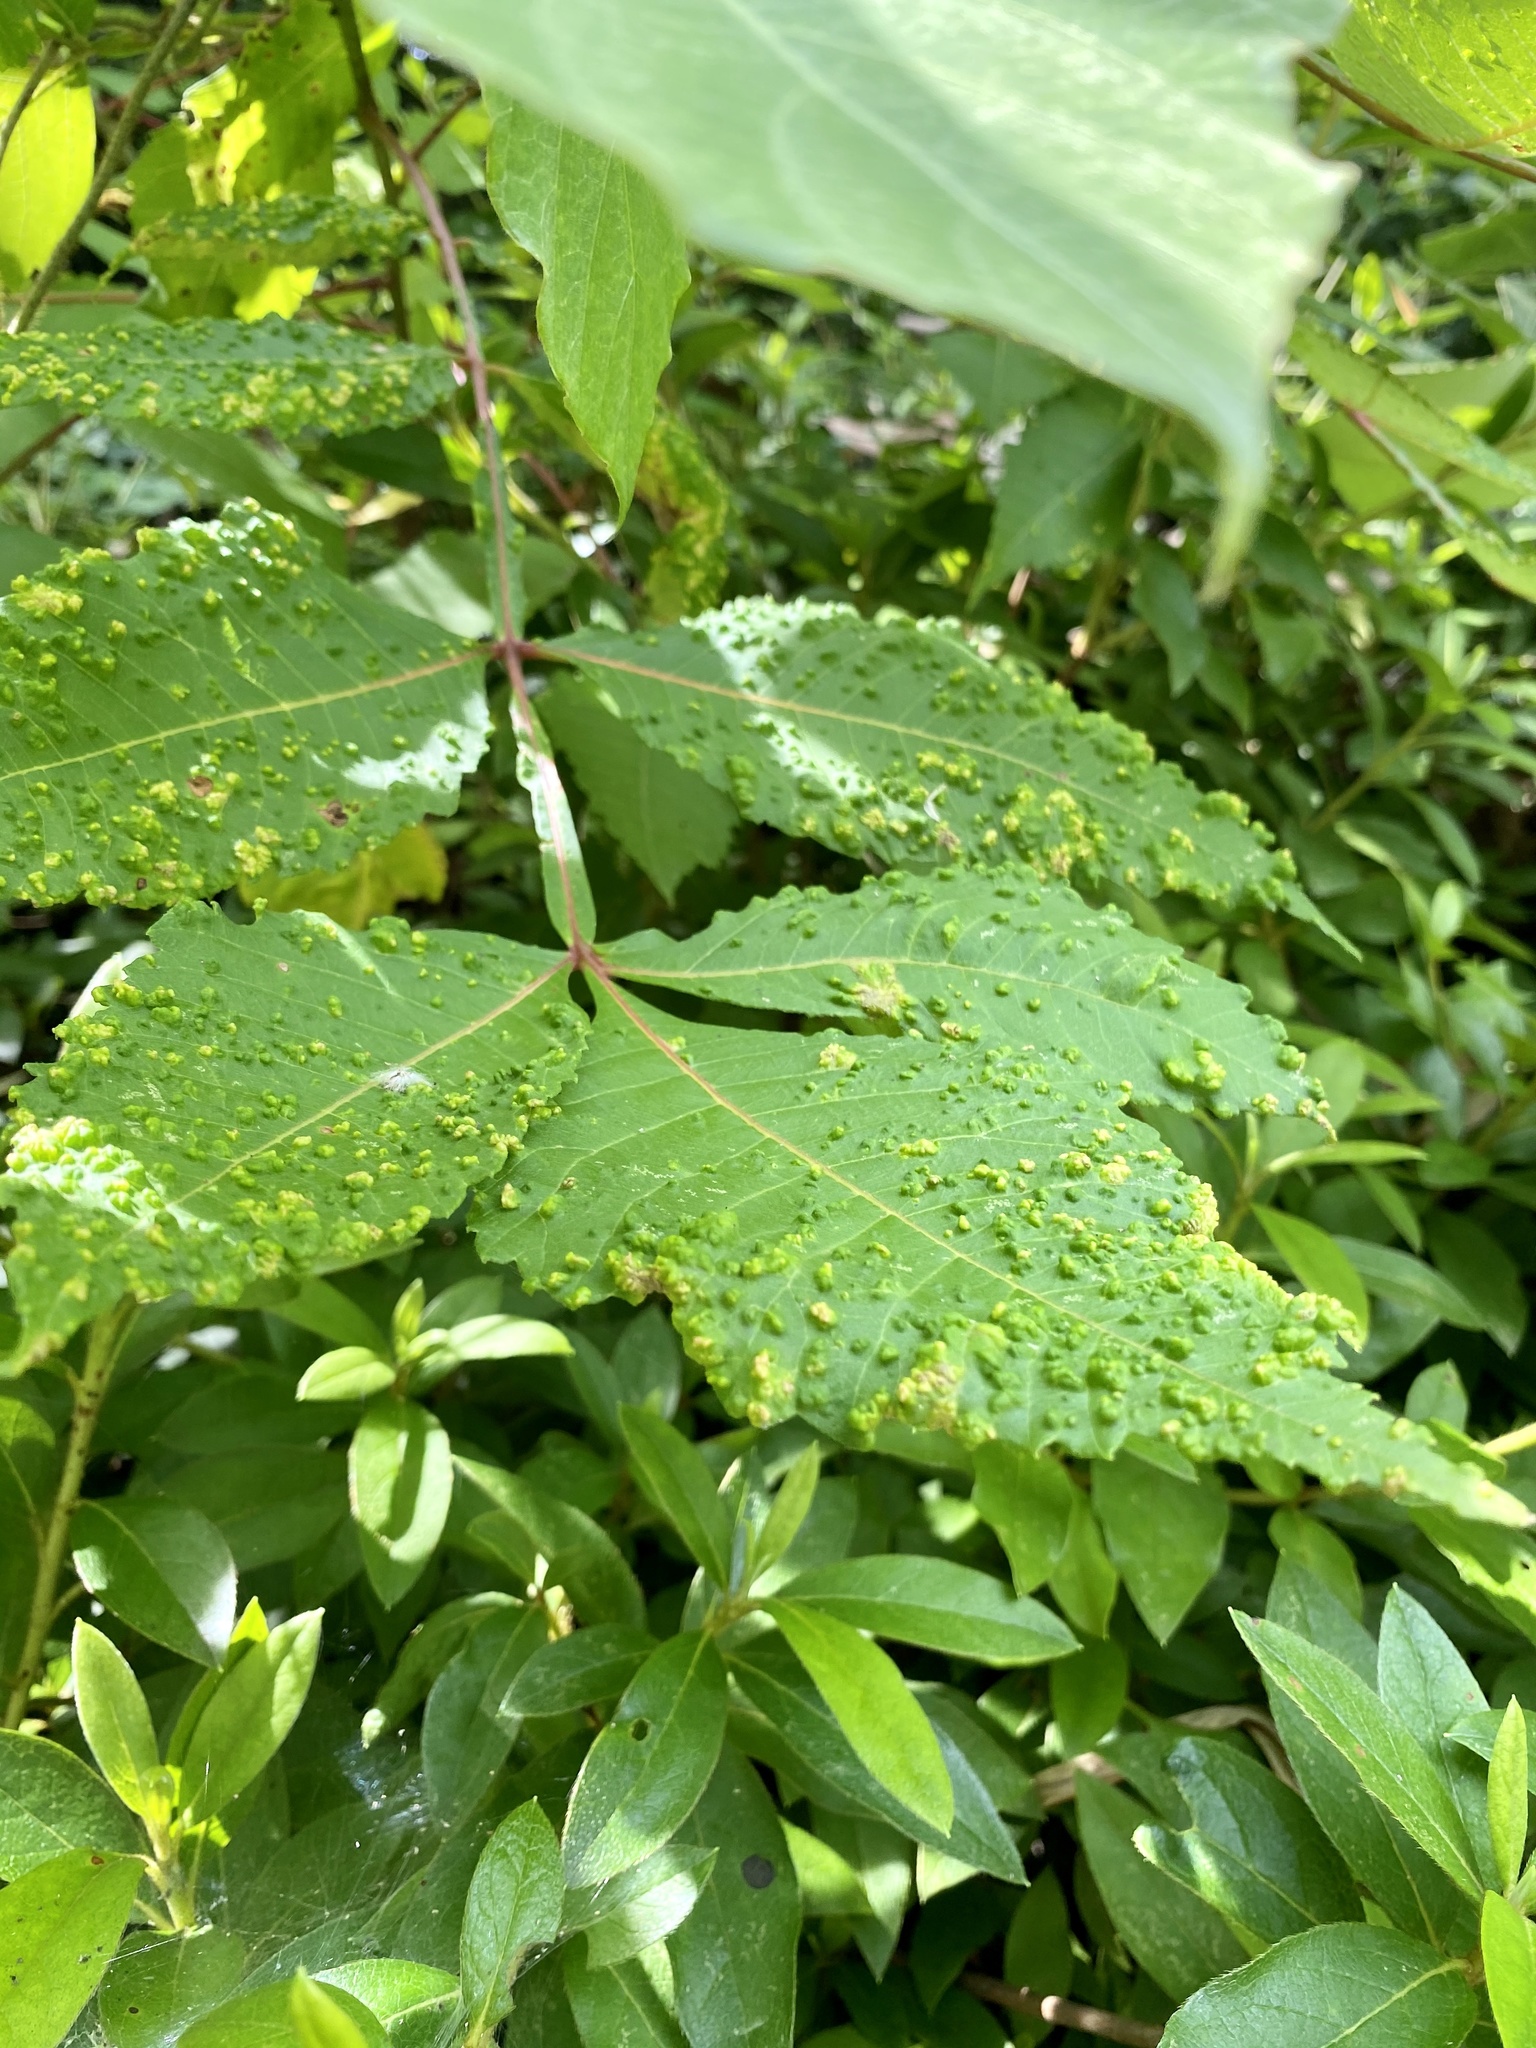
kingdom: Animalia
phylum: Arthropoda
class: Arachnida
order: Trombidiformes
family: Eriophyidae
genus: Aculops
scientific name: Aculops chinonei
